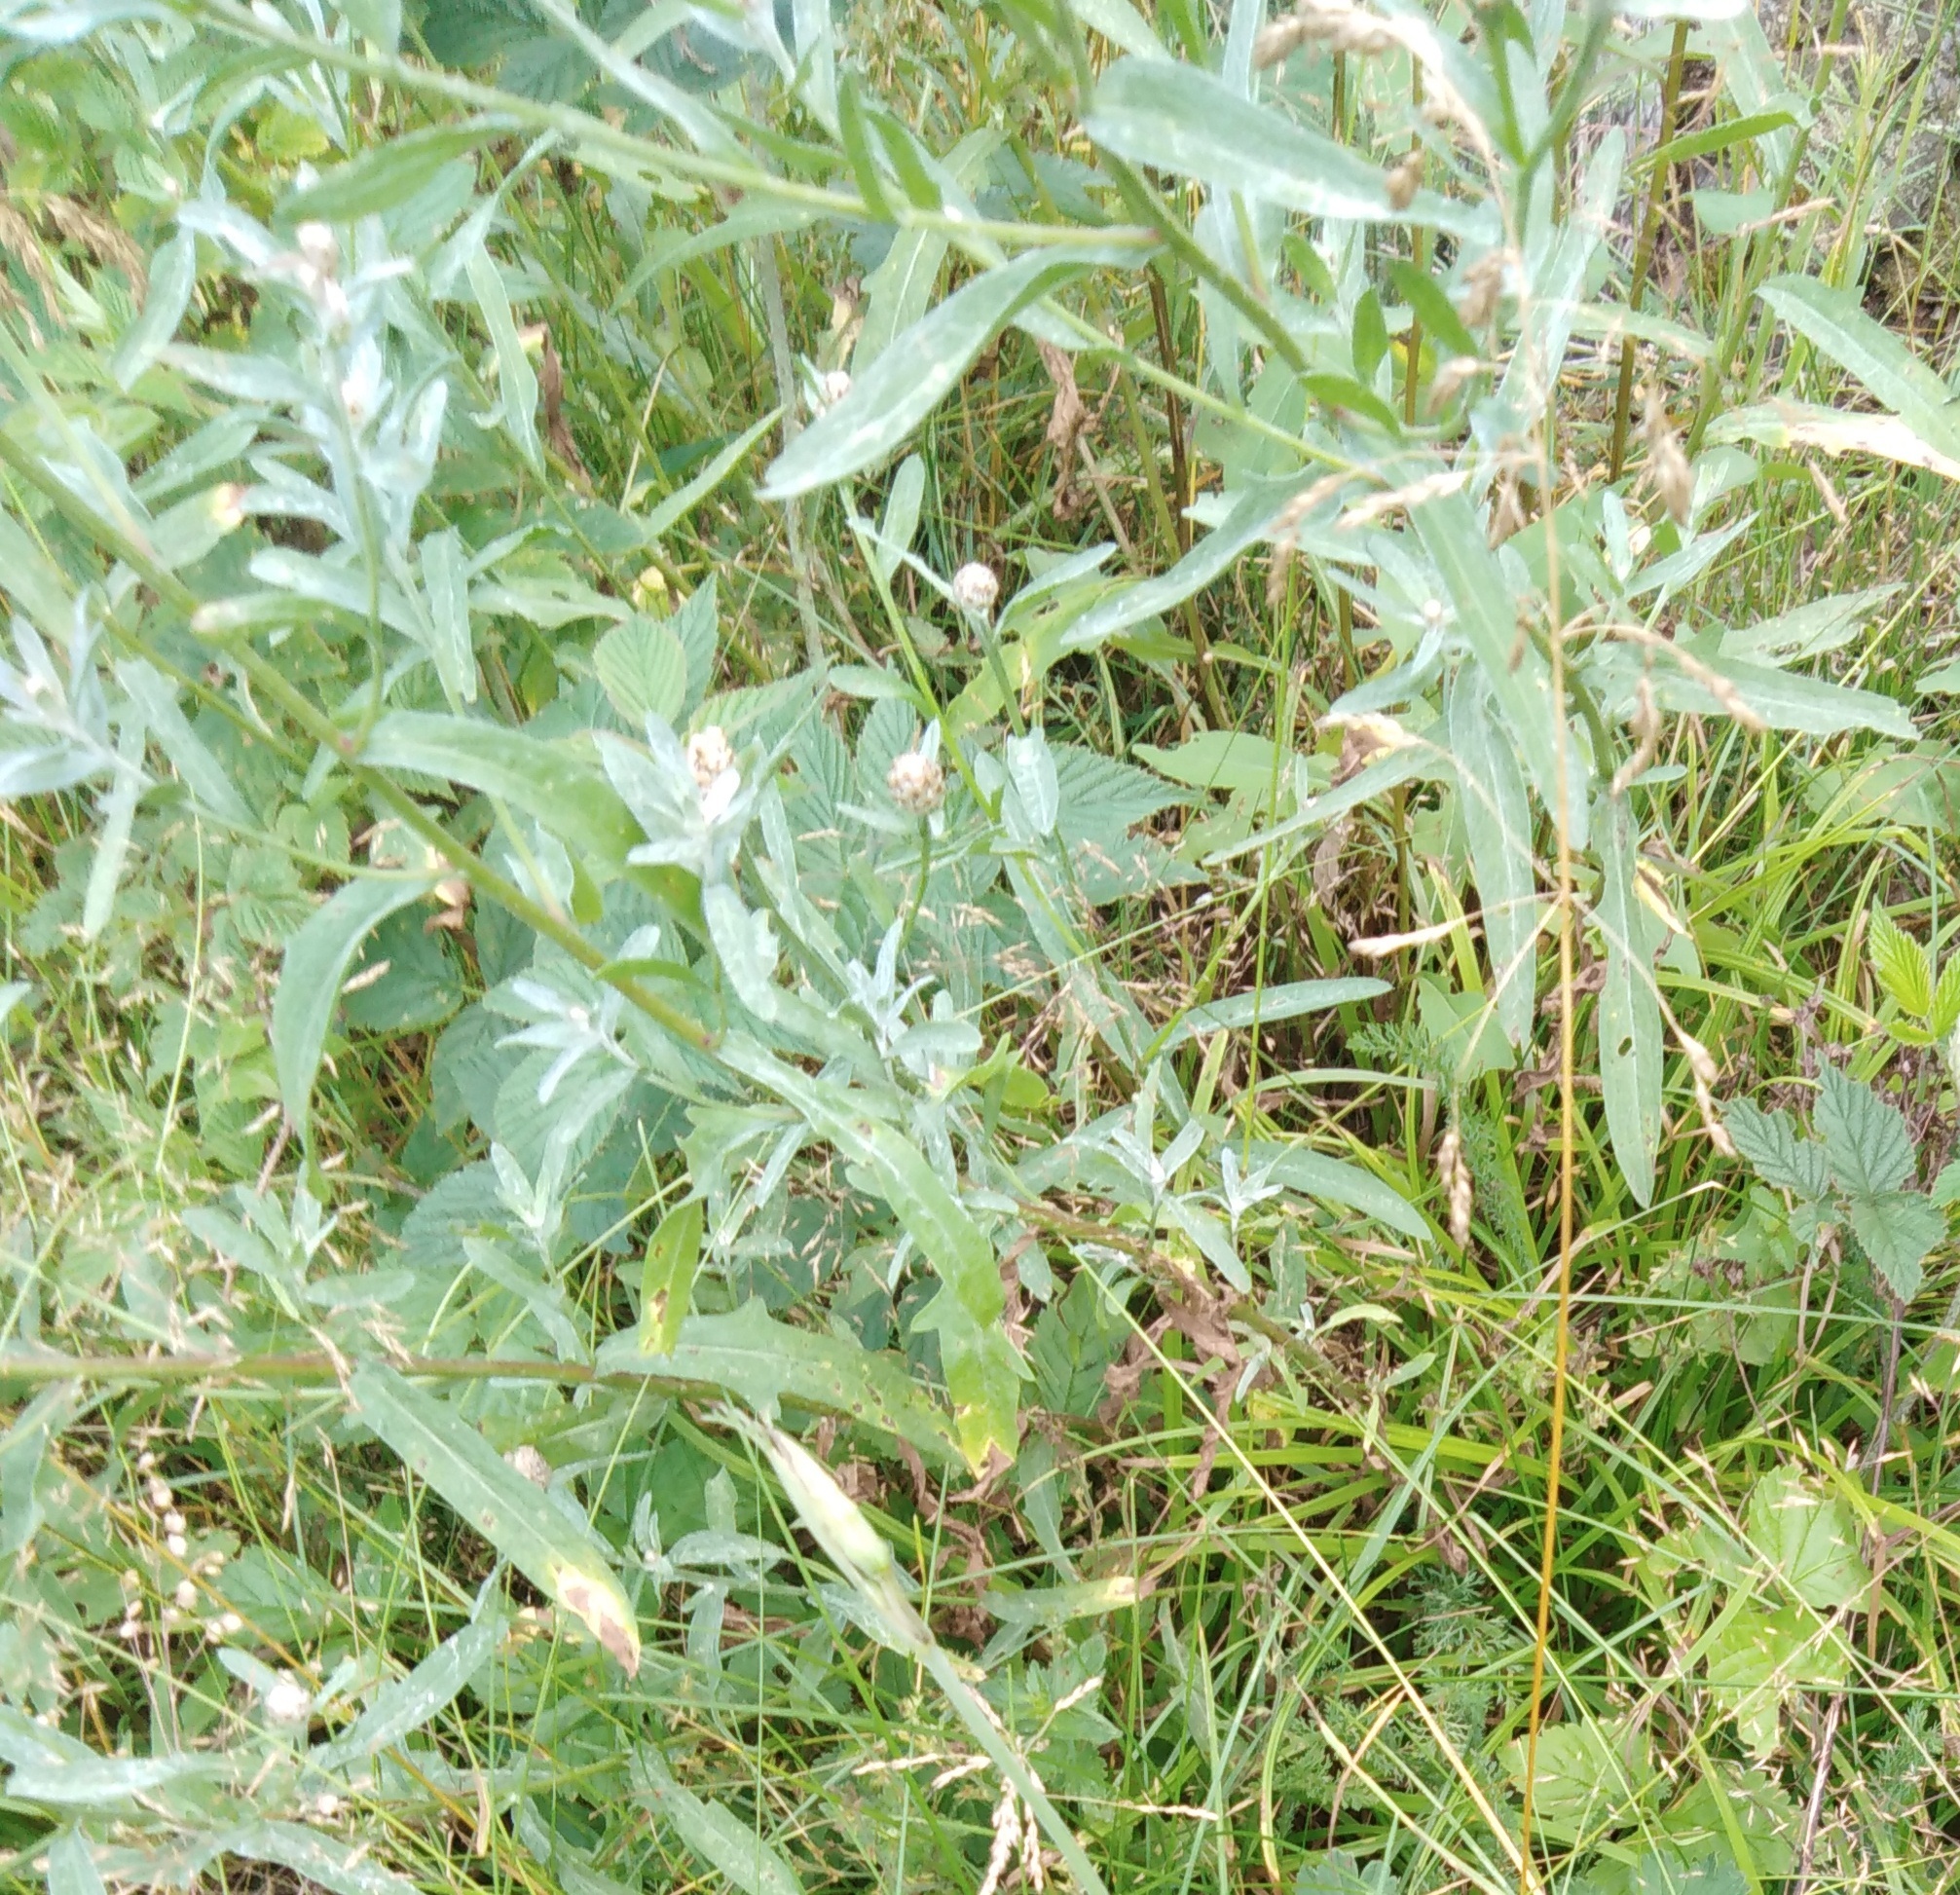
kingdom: Plantae
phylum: Tracheophyta
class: Magnoliopsida
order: Asterales
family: Asteraceae
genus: Centaurea
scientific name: Centaurea jacea
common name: Brown knapweed
